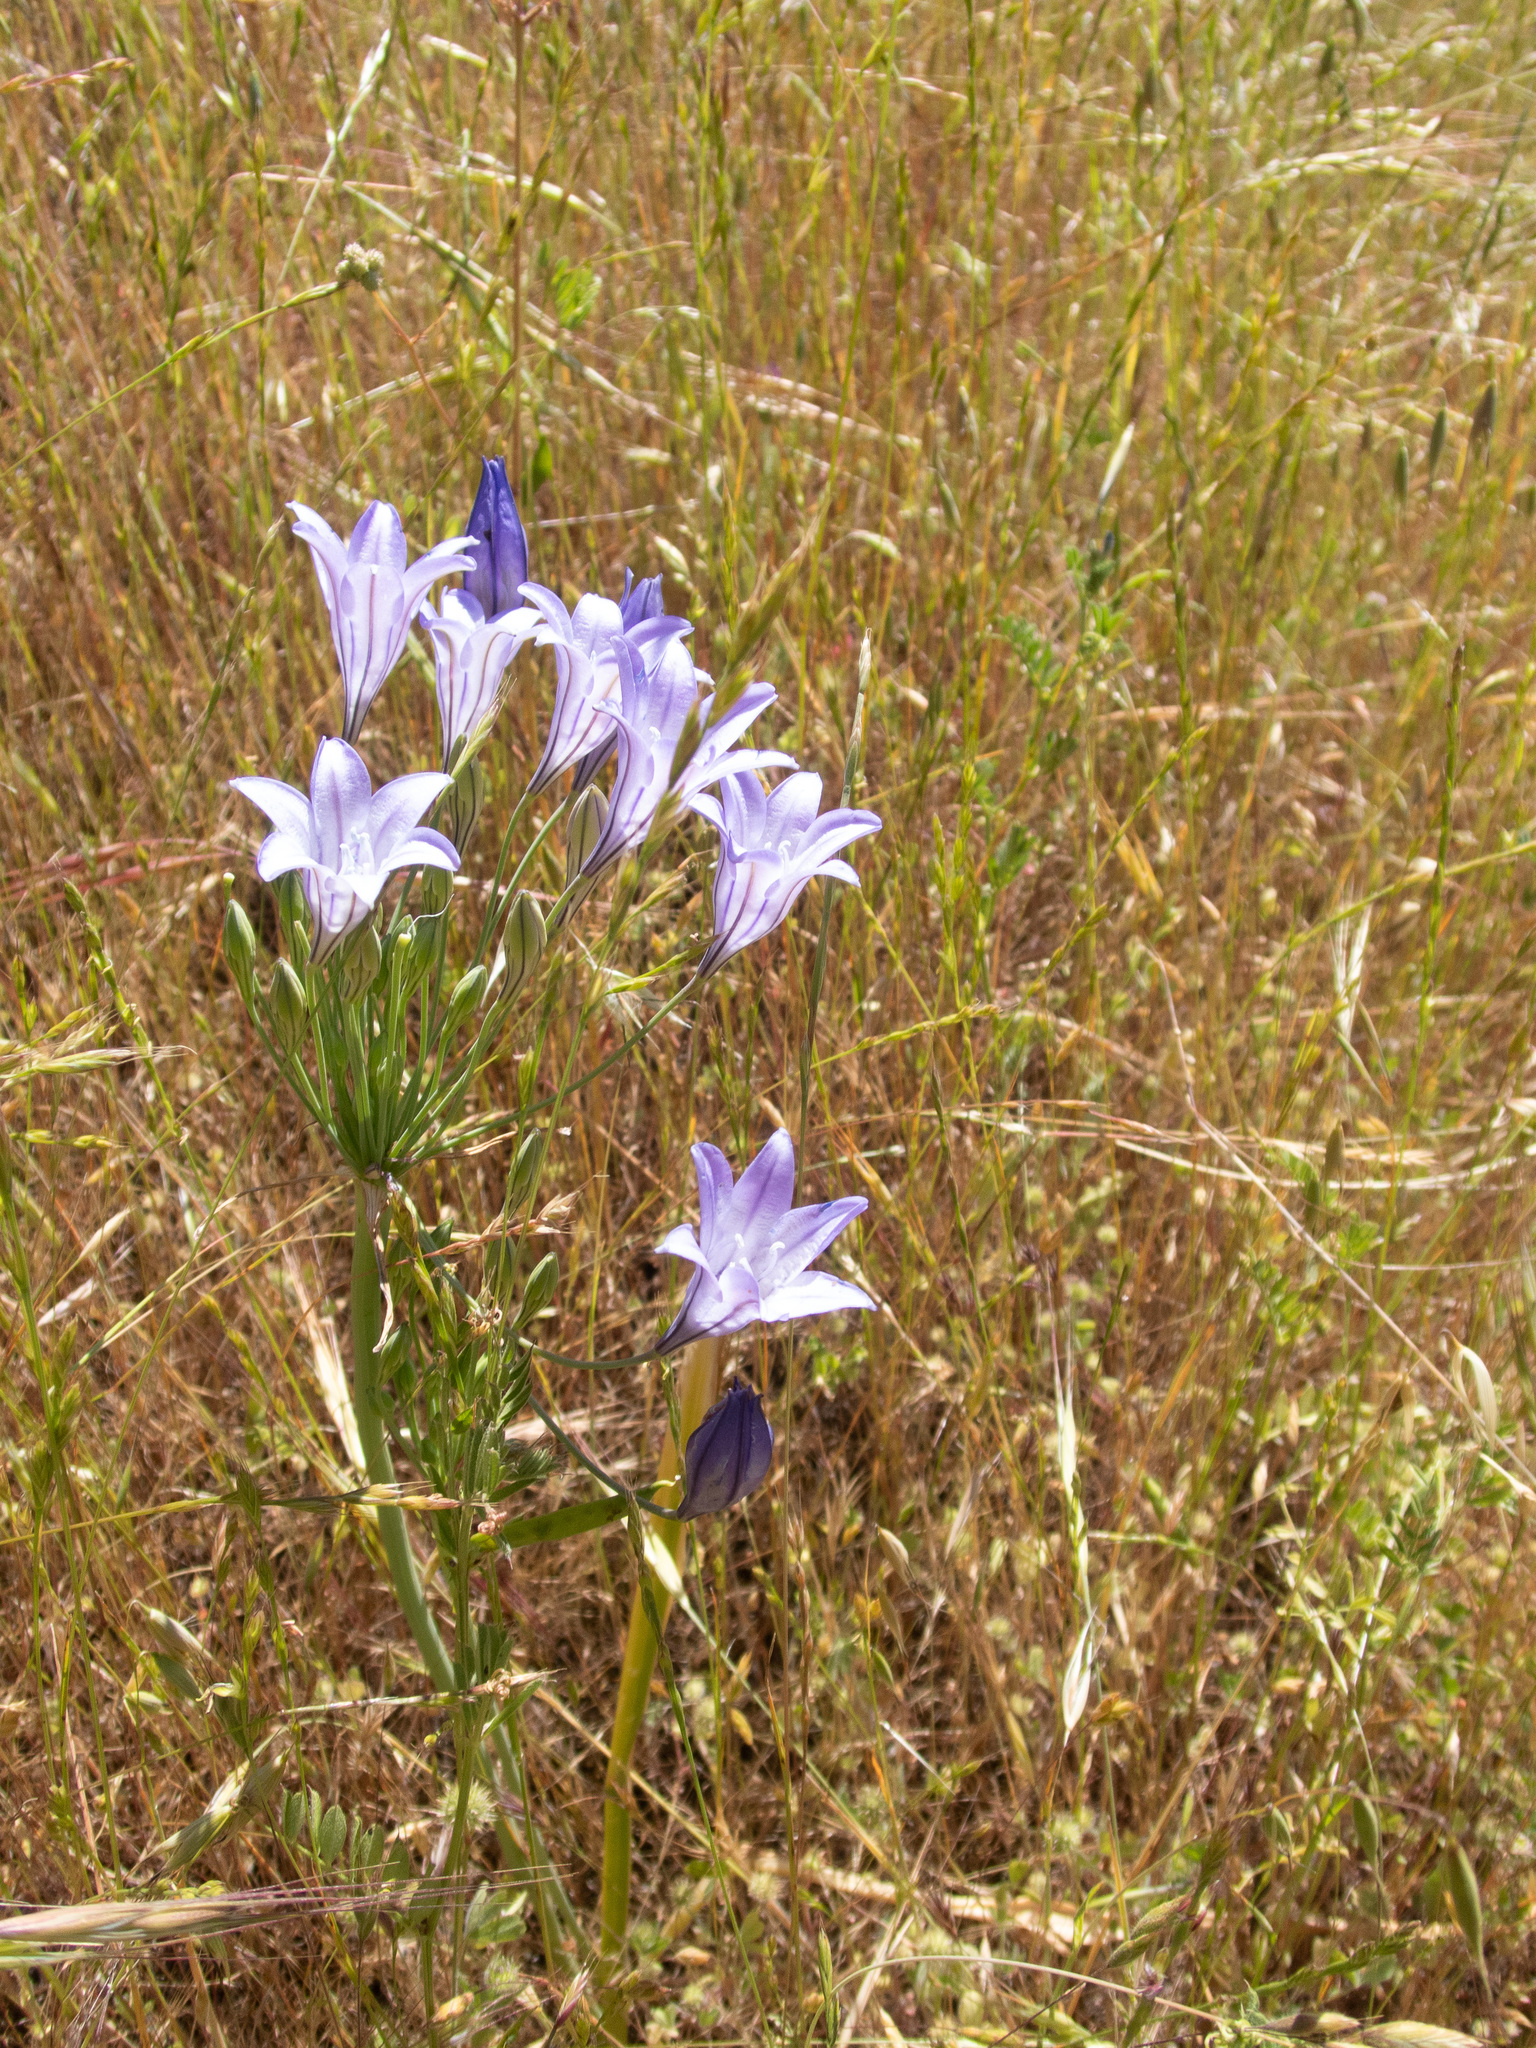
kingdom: Plantae
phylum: Tracheophyta
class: Liliopsida
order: Asparagales
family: Asparagaceae
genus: Triteleia
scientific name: Triteleia laxa
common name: Triplet-lily
